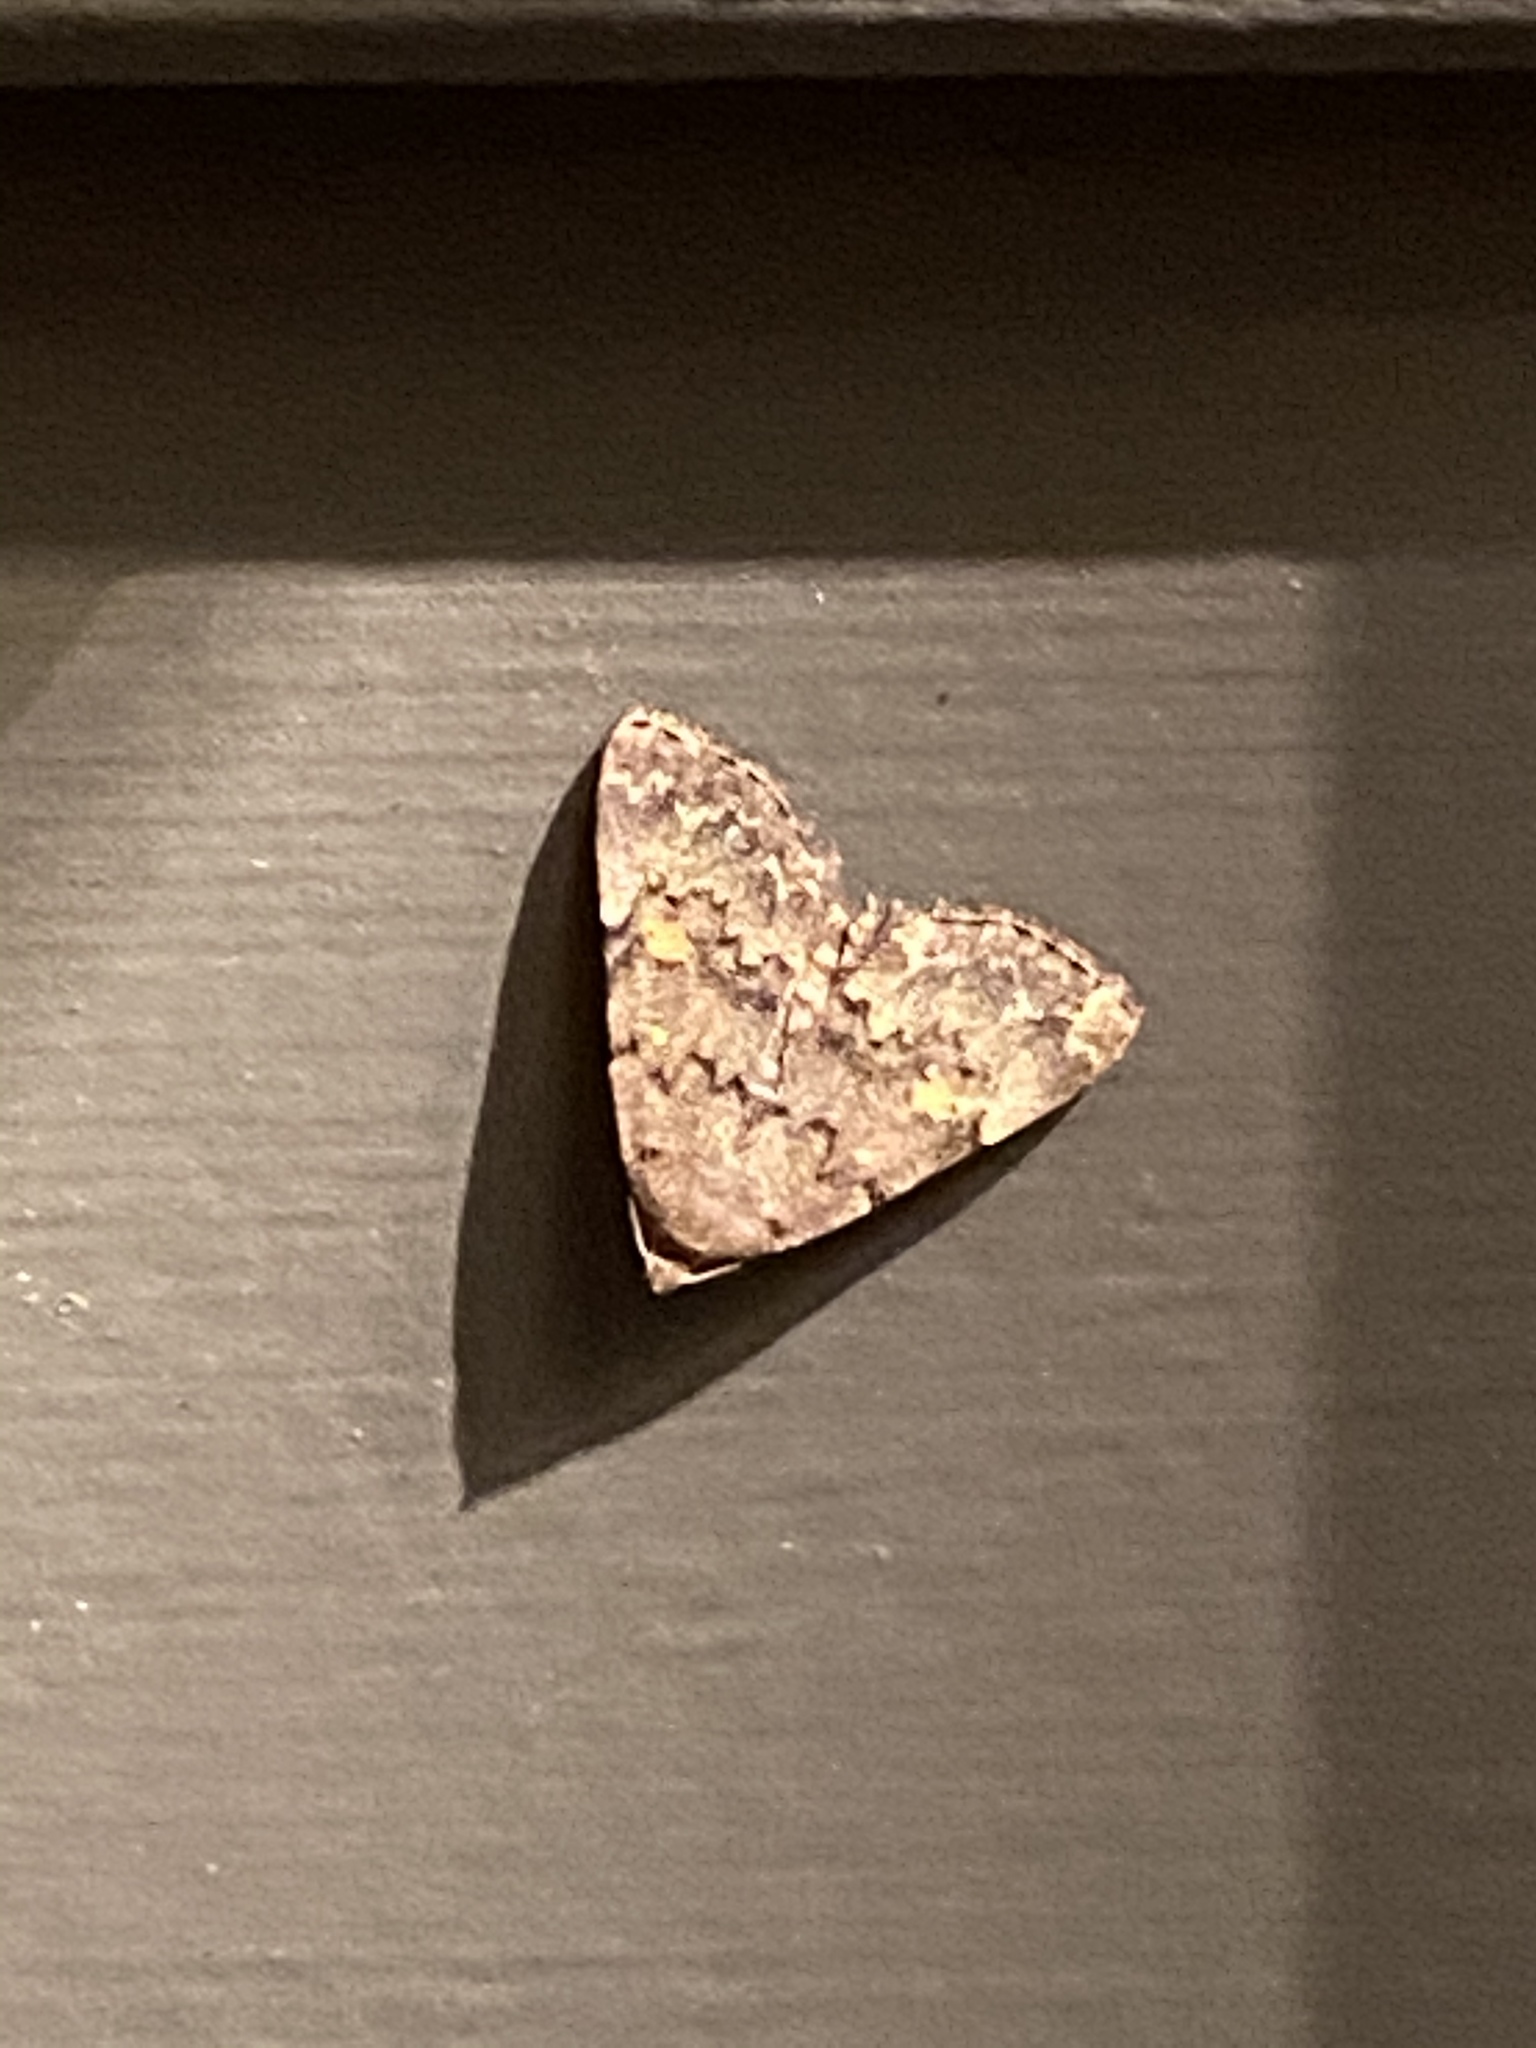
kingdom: Animalia
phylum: Arthropoda
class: Insecta
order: Lepidoptera
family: Erebidae
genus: Idia
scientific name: Idia aemula
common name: Common idia moth
